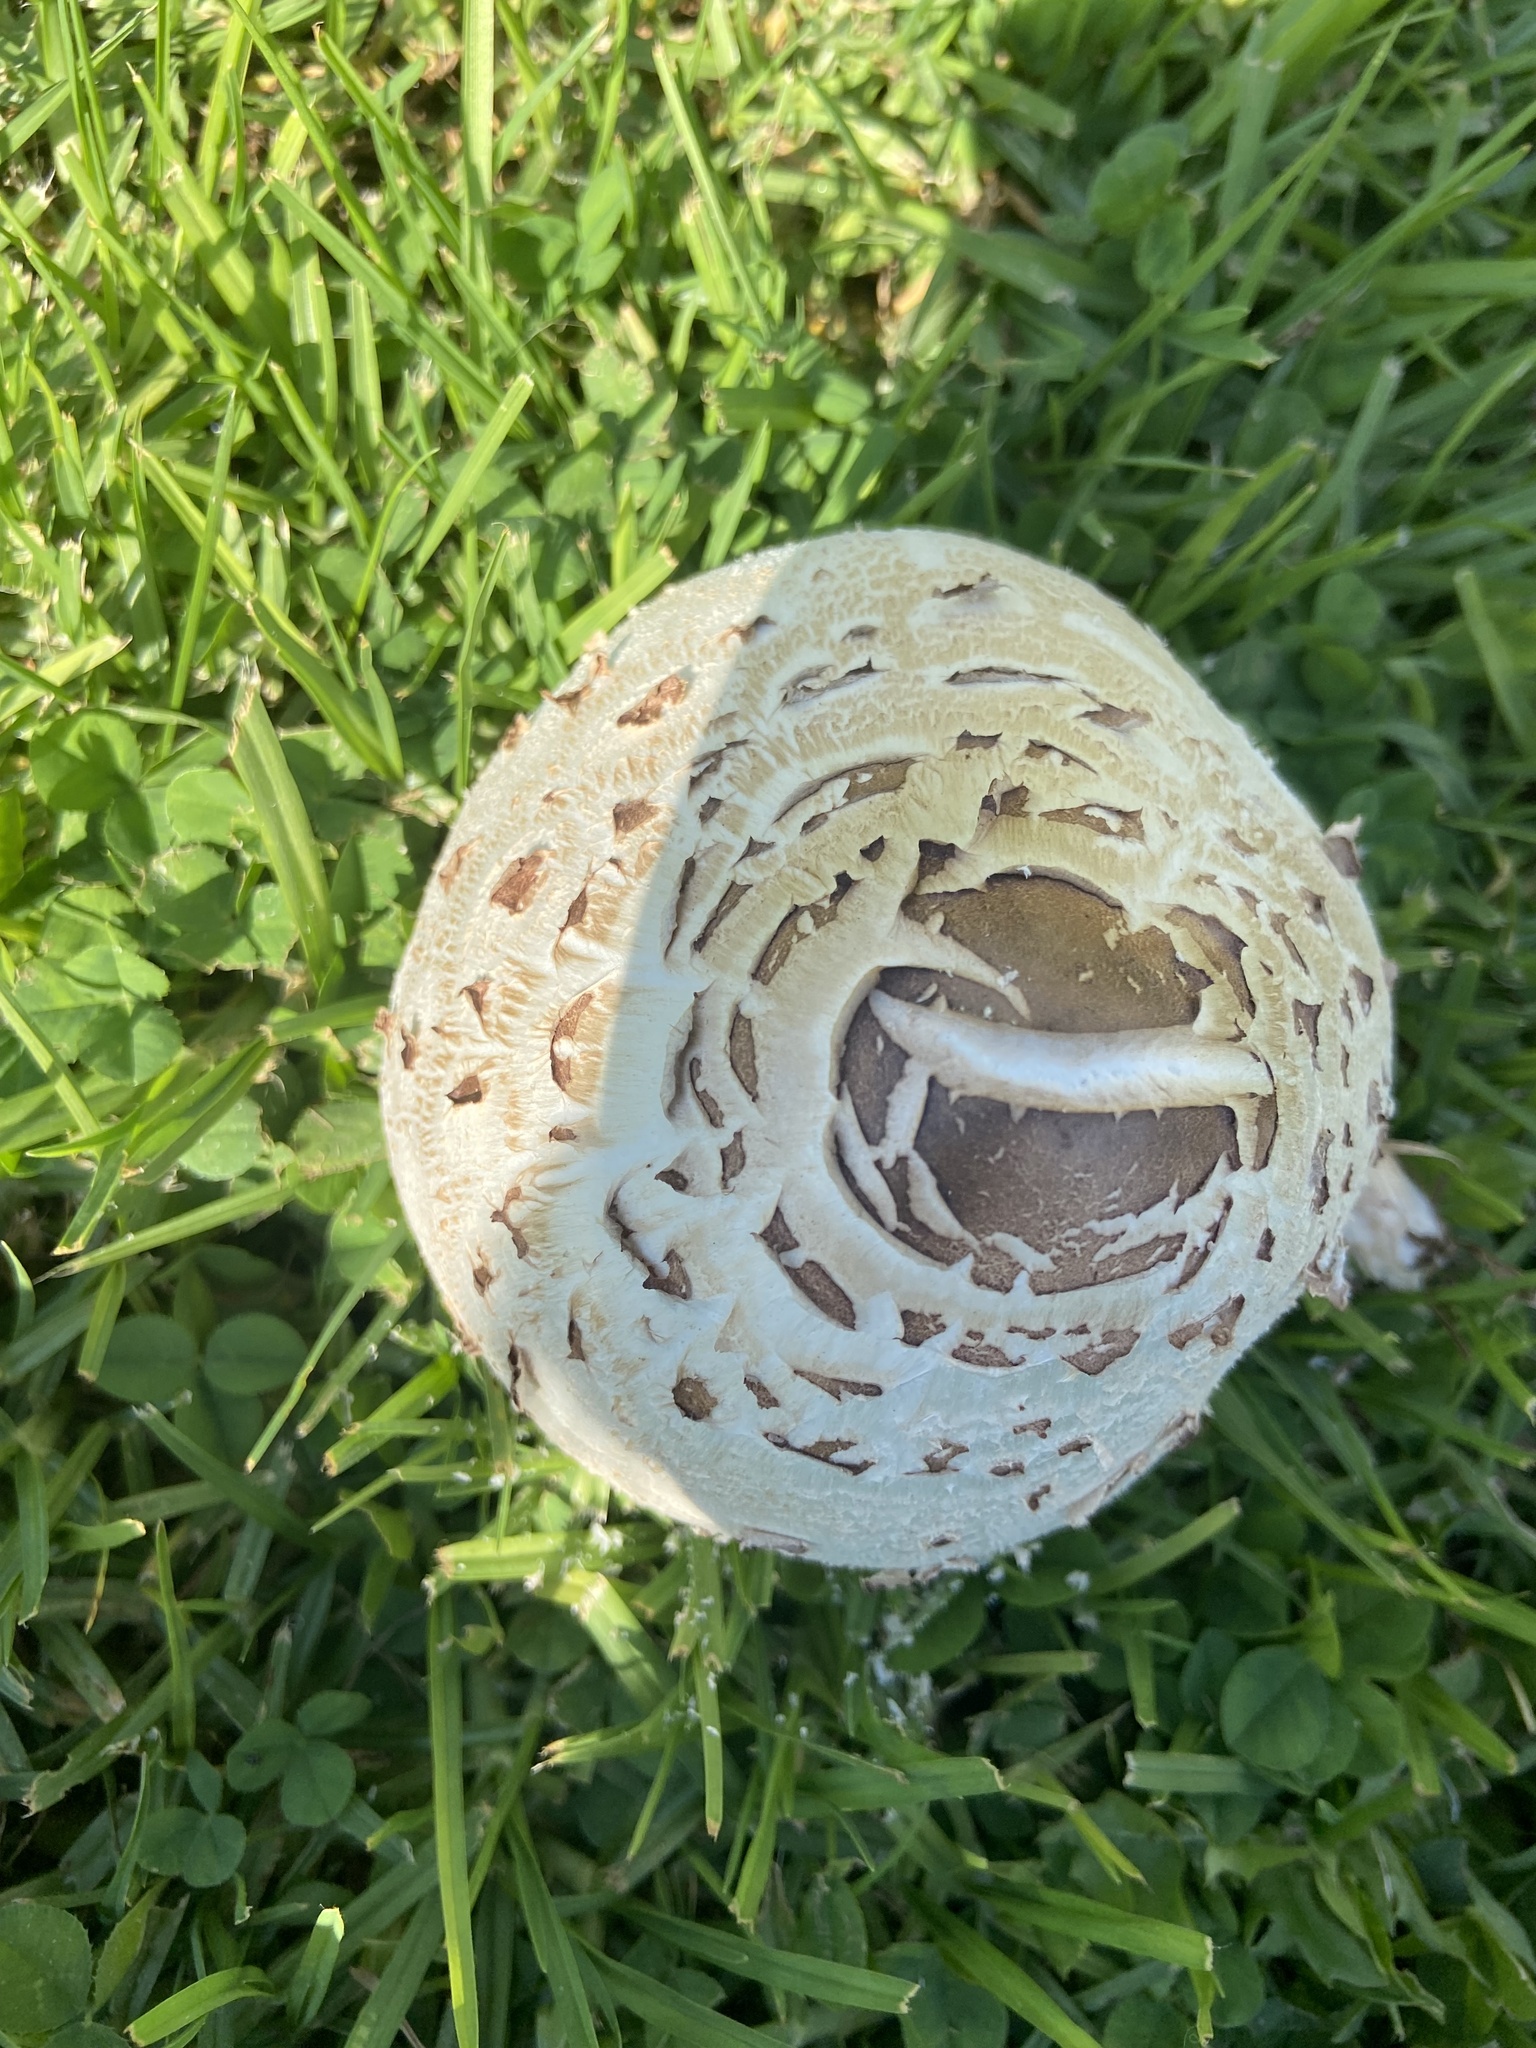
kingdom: Fungi
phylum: Basidiomycota
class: Agaricomycetes
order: Agaricales
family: Agaricaceae
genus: Chlorophyllum
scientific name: Chlorophyllum molybdites
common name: False parasol
